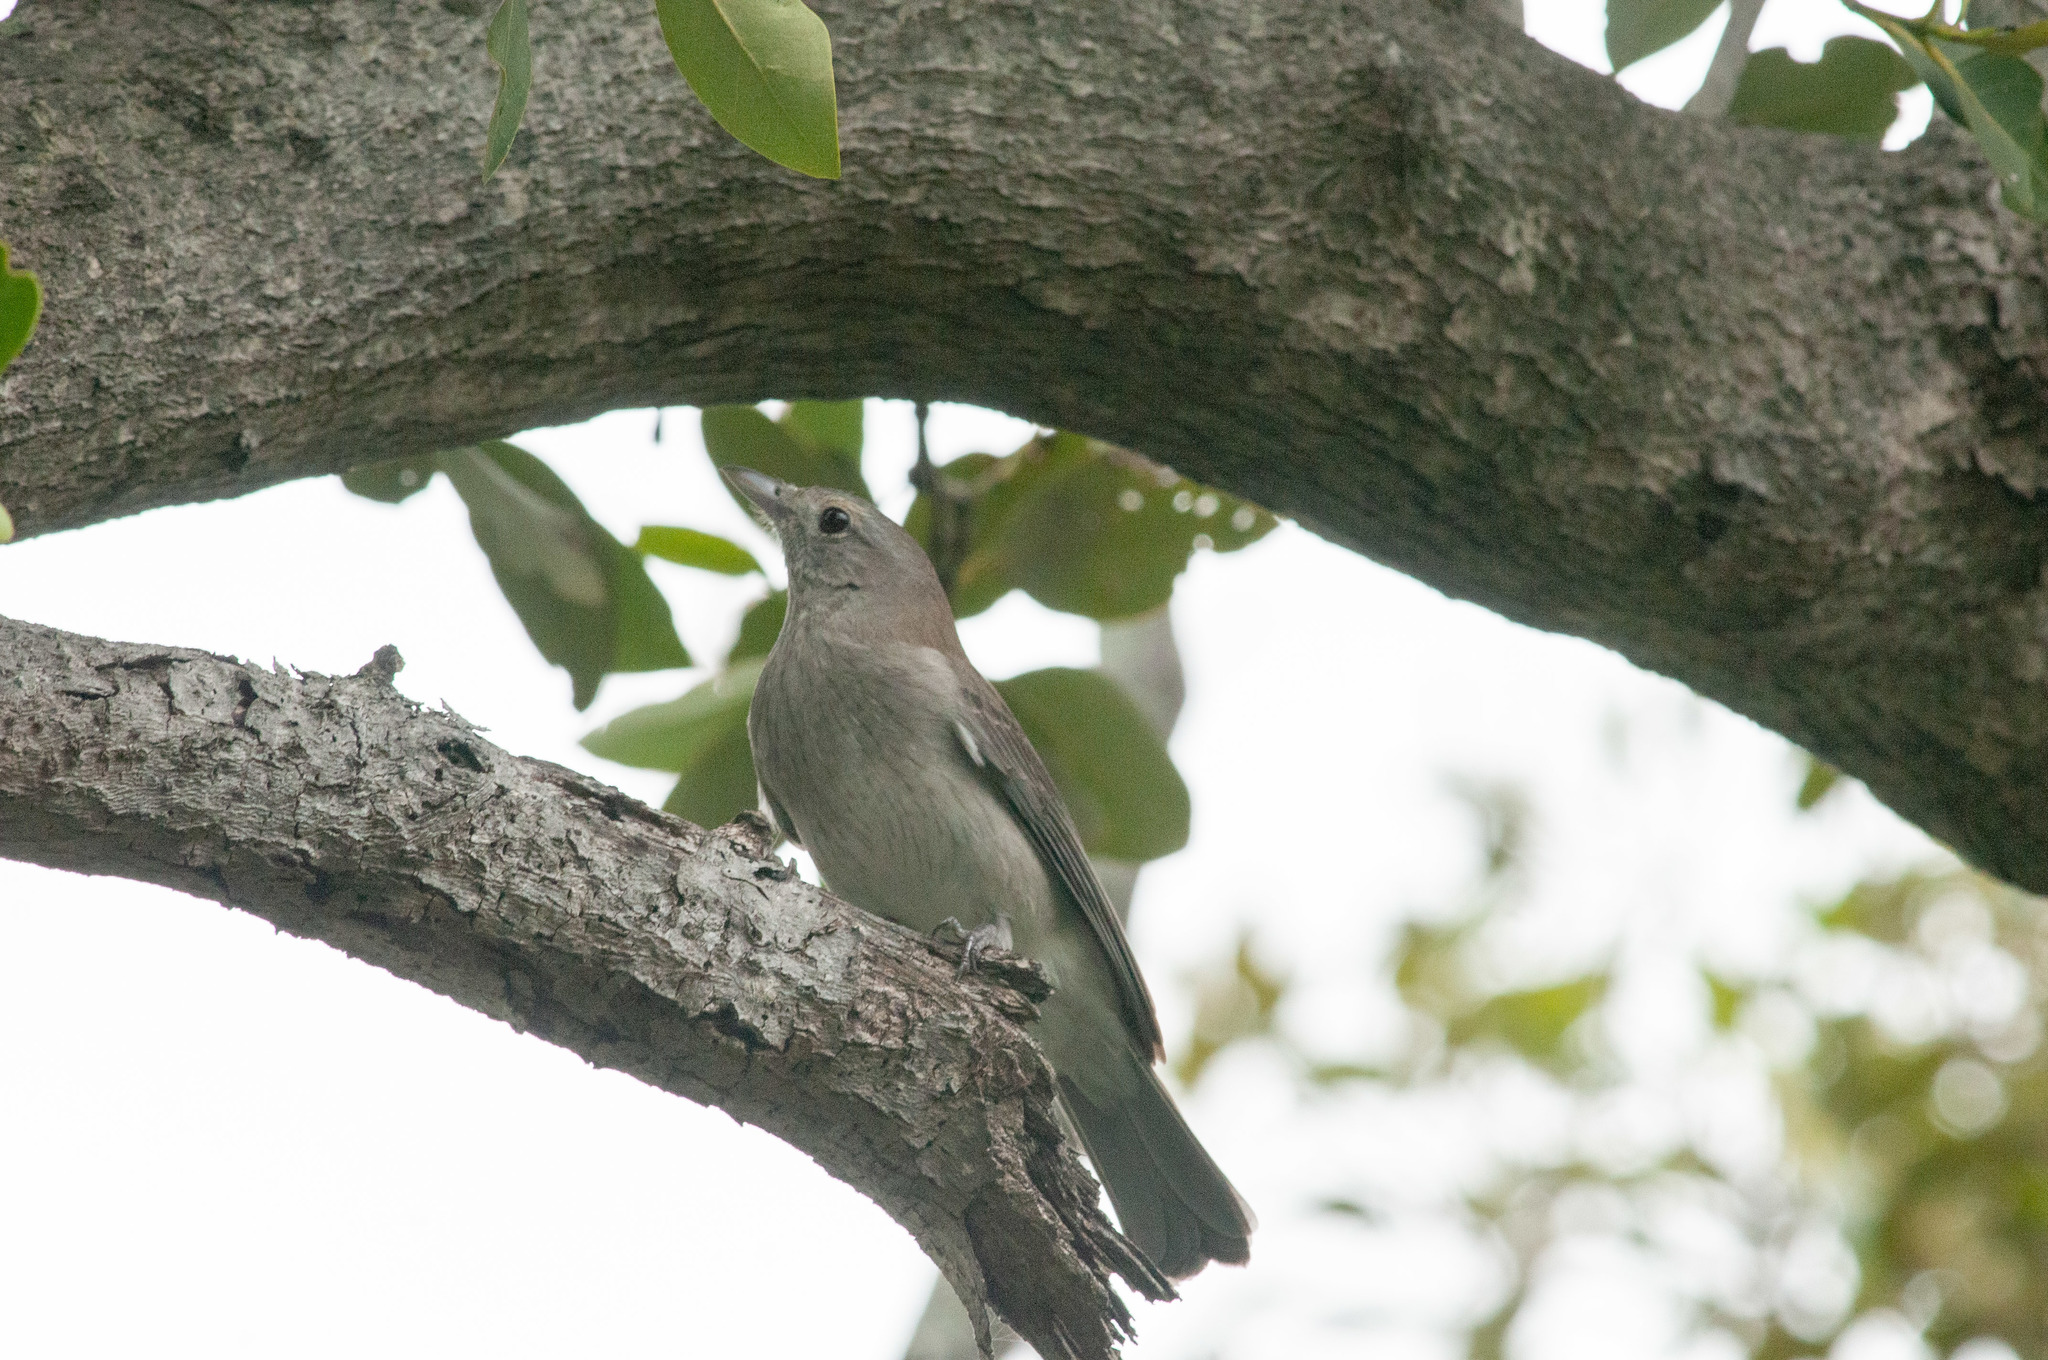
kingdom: Animalia
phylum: Chordata
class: Aves
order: Passeriformes
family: Pachycephalidae
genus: Colluricincla
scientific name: Colluricincla harmonica
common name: Grey shrikethrush
